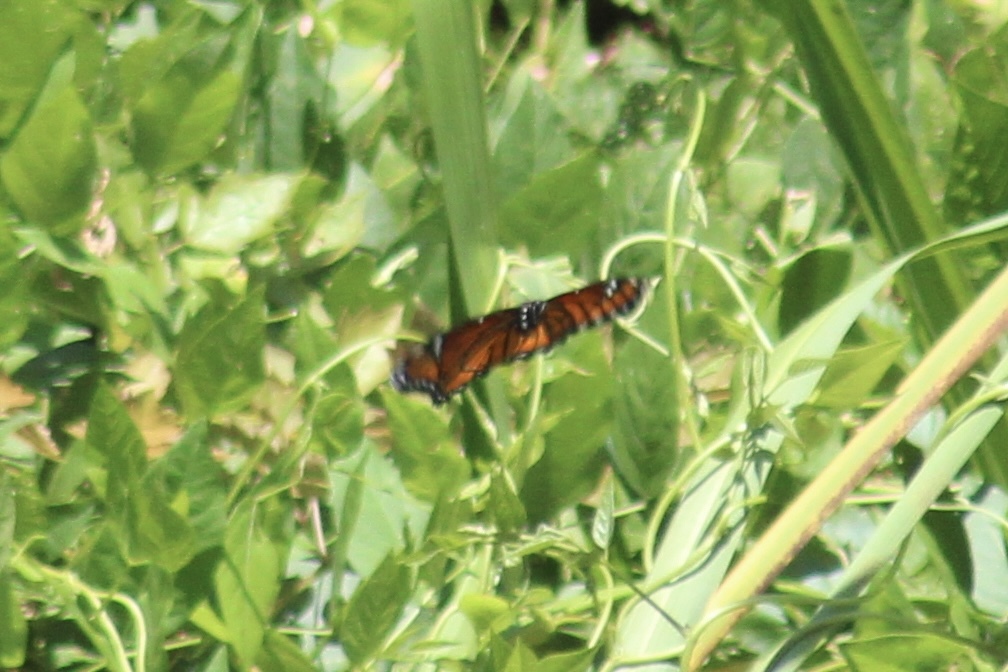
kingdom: Animalia
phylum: Arthropoda
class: Insecta
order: Lepidoptera
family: Nymphalidae
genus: Limenitis
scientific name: Limenitis archippus
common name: Viceroy
